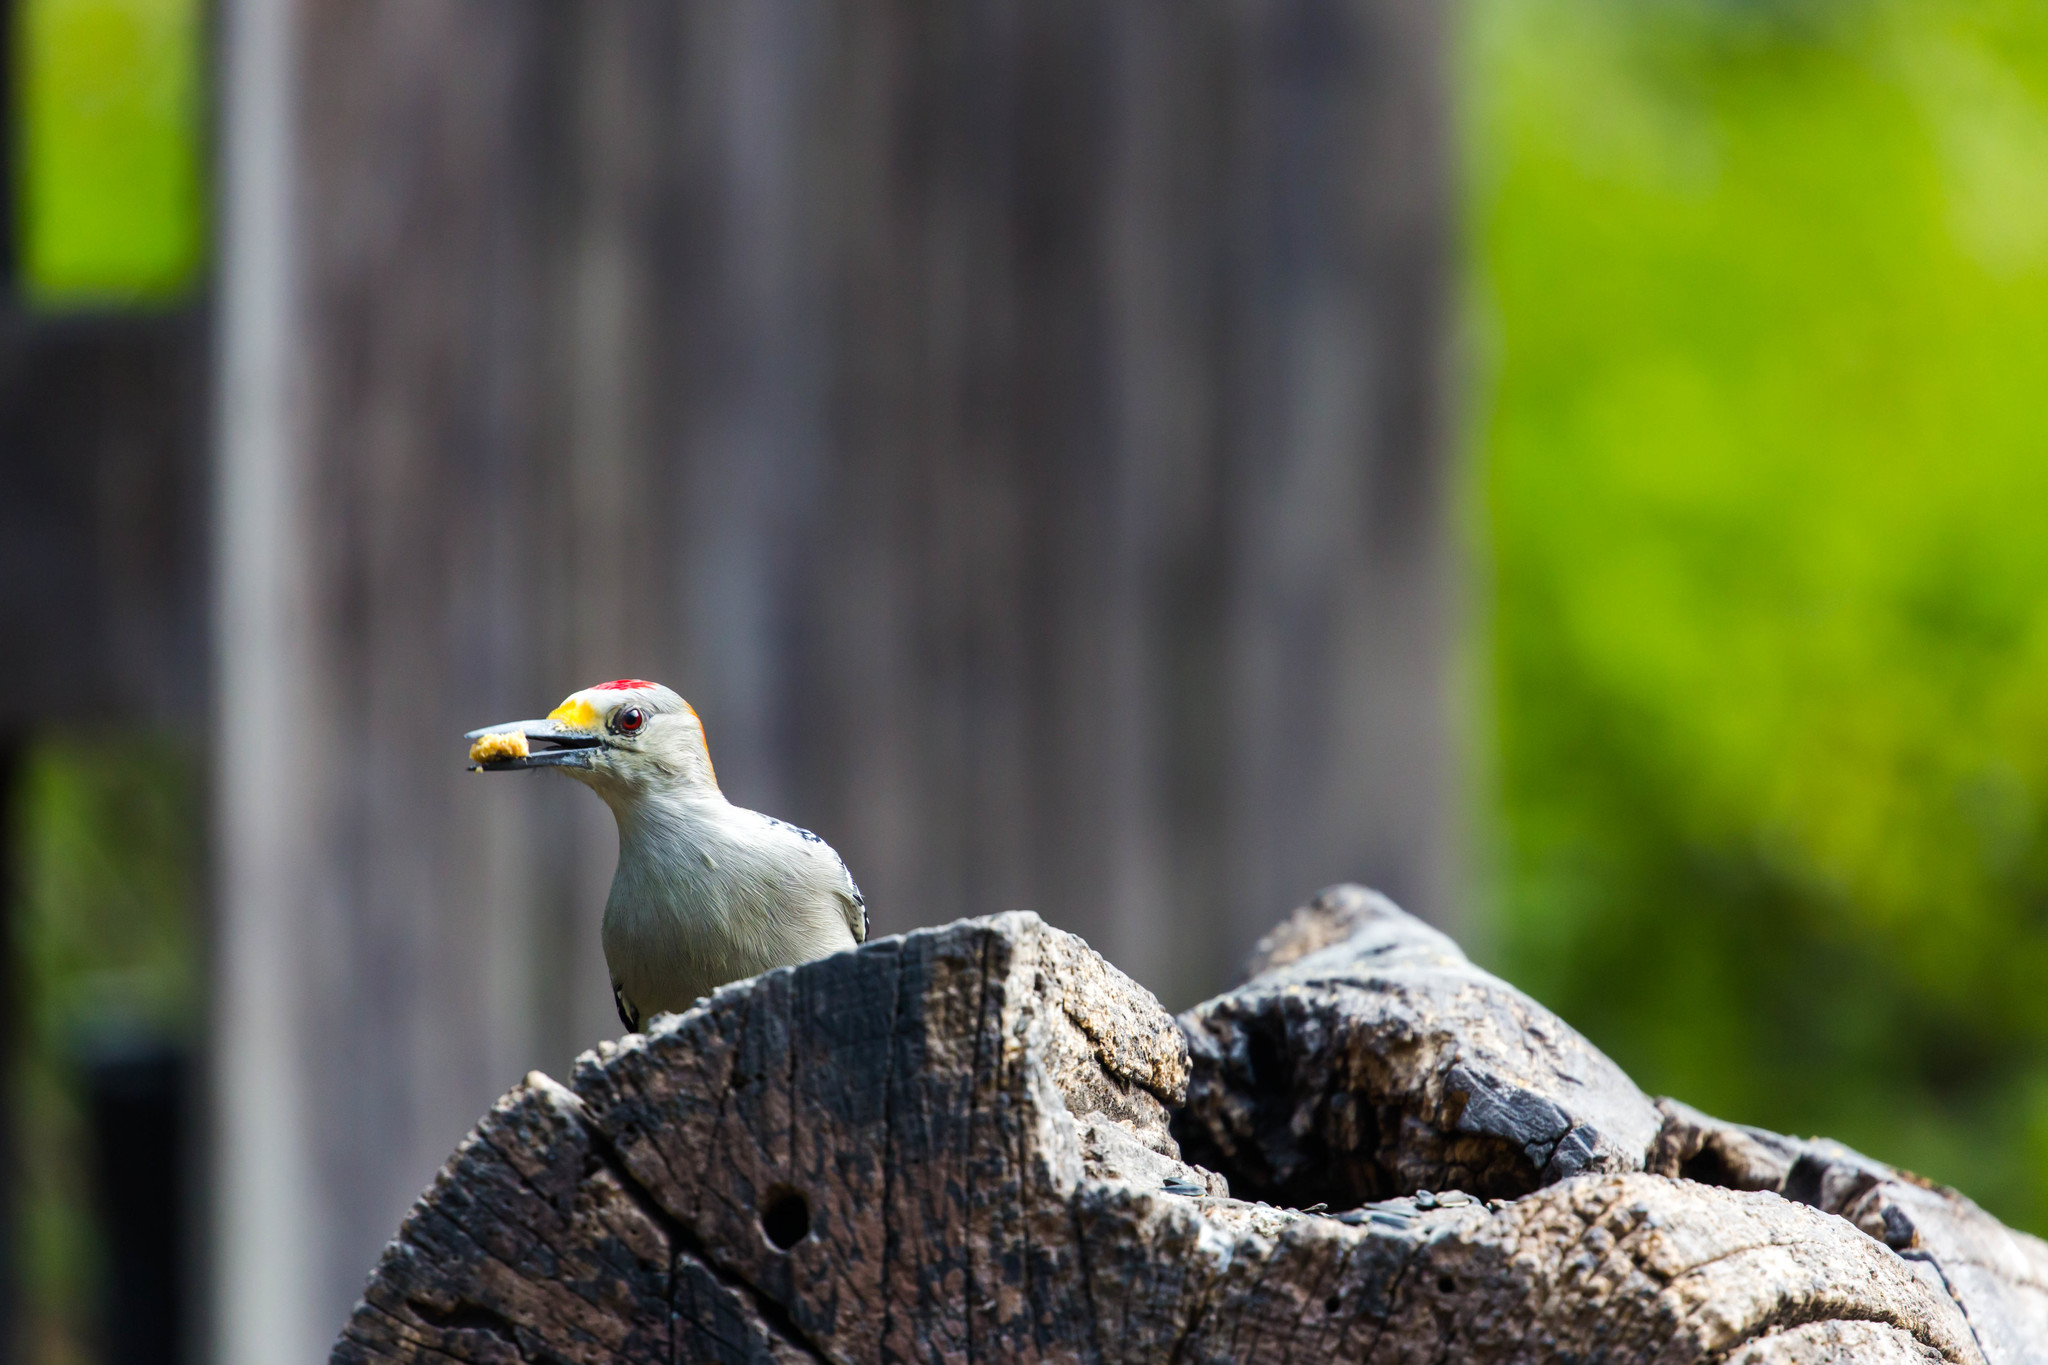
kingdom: Animalia
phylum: Chordata
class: Aves
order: Piciformes
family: Picidae
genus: Melanerpes
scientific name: Melanerpes aurifrons
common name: Golden-fronted woodpecker
